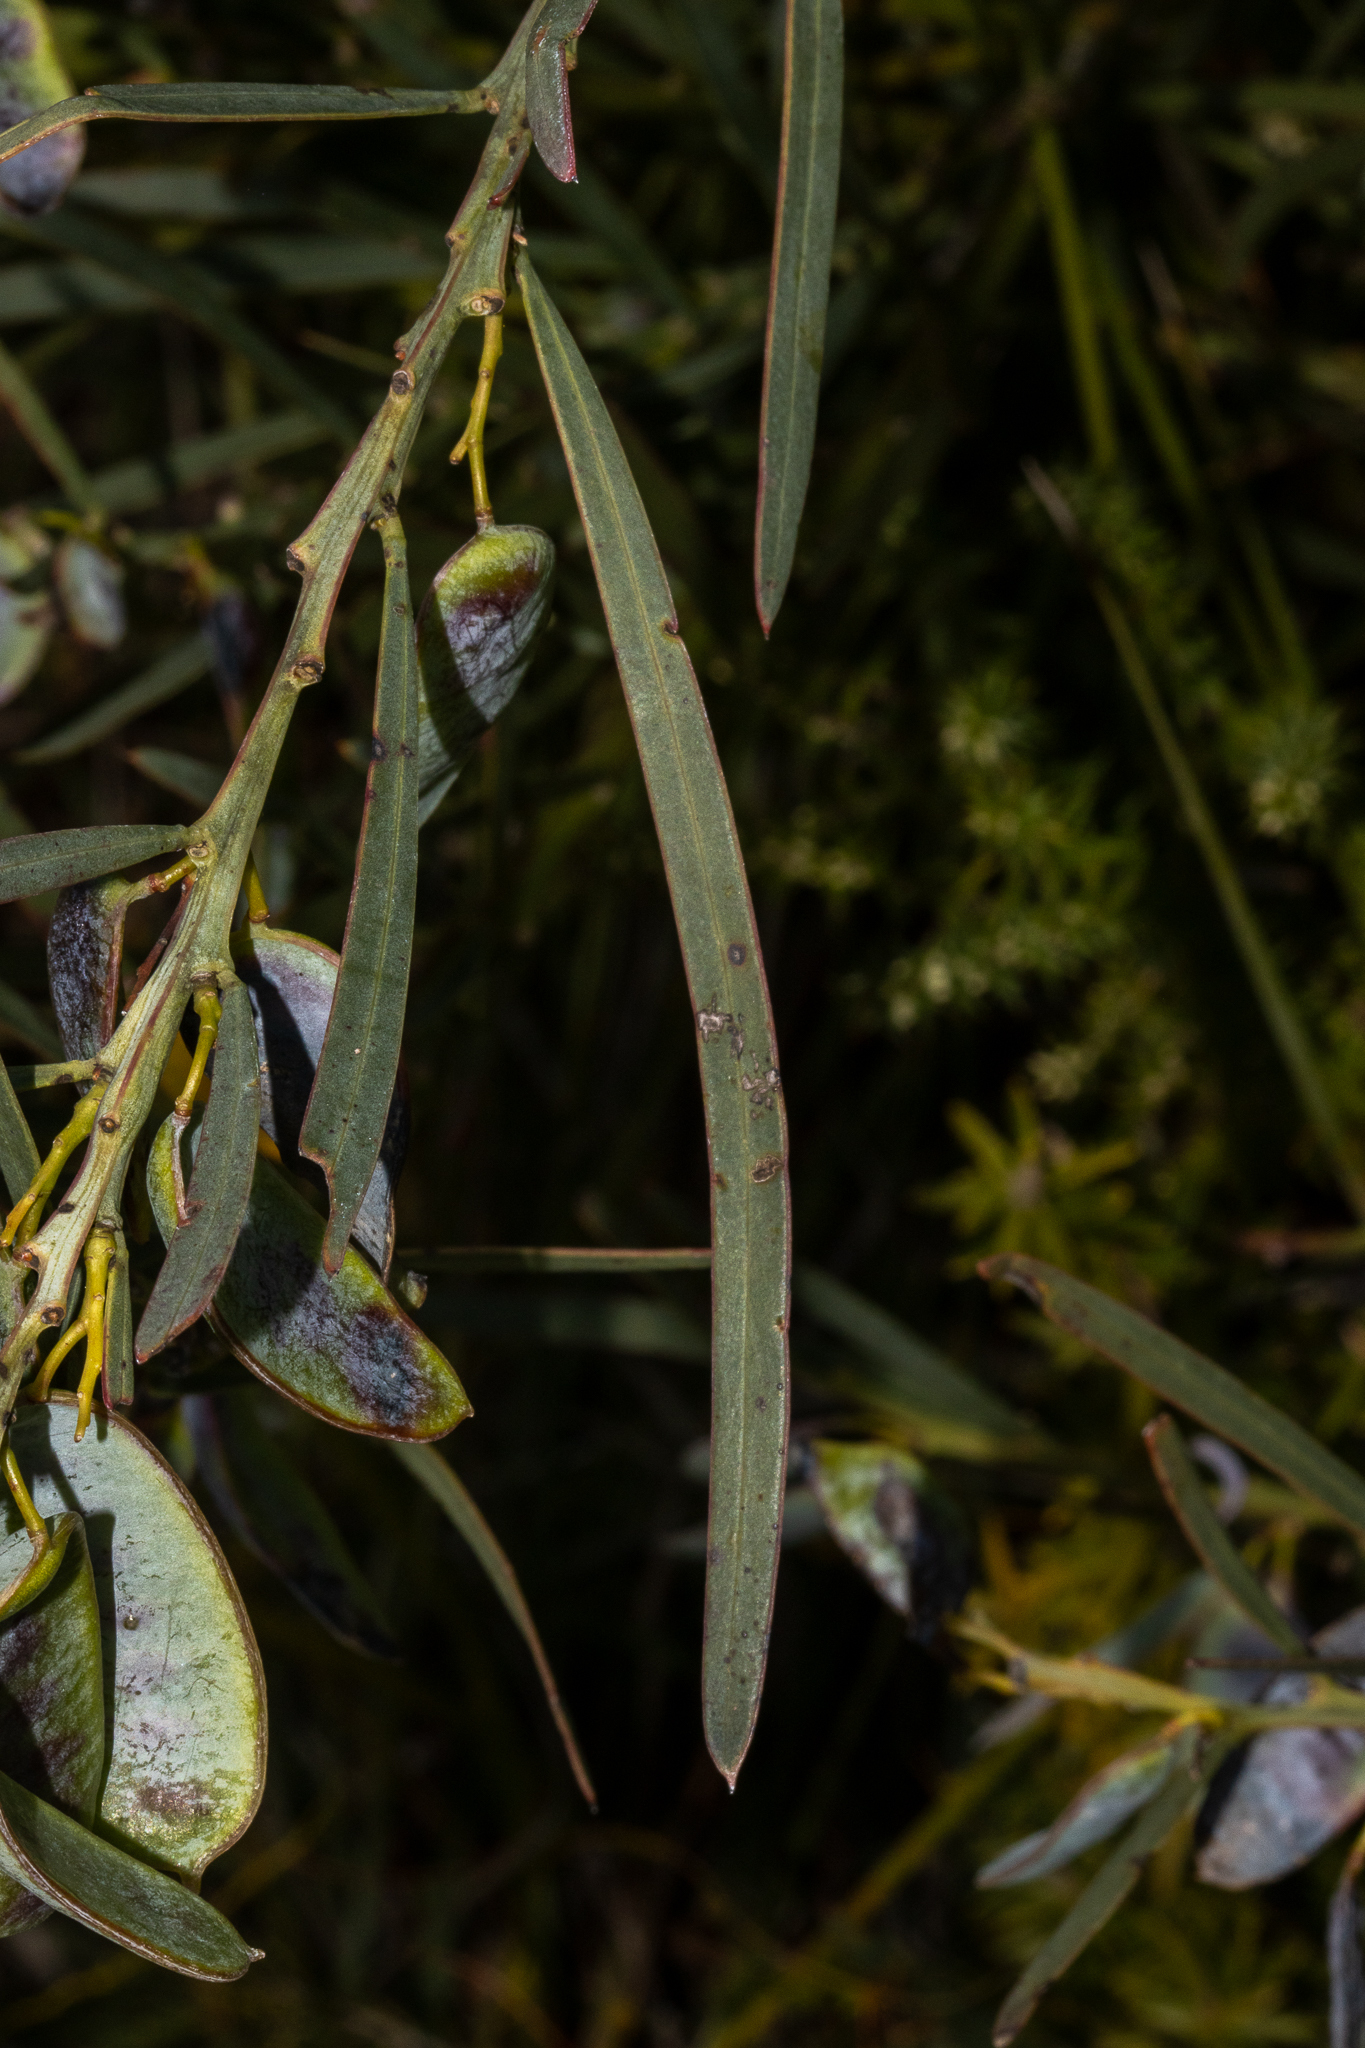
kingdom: Plantae
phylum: Tracheophyta
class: Magnoliopsida
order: Fabales
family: Fabaceae
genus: Acacia
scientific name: Acacia suaveolens
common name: Sweet acacia
